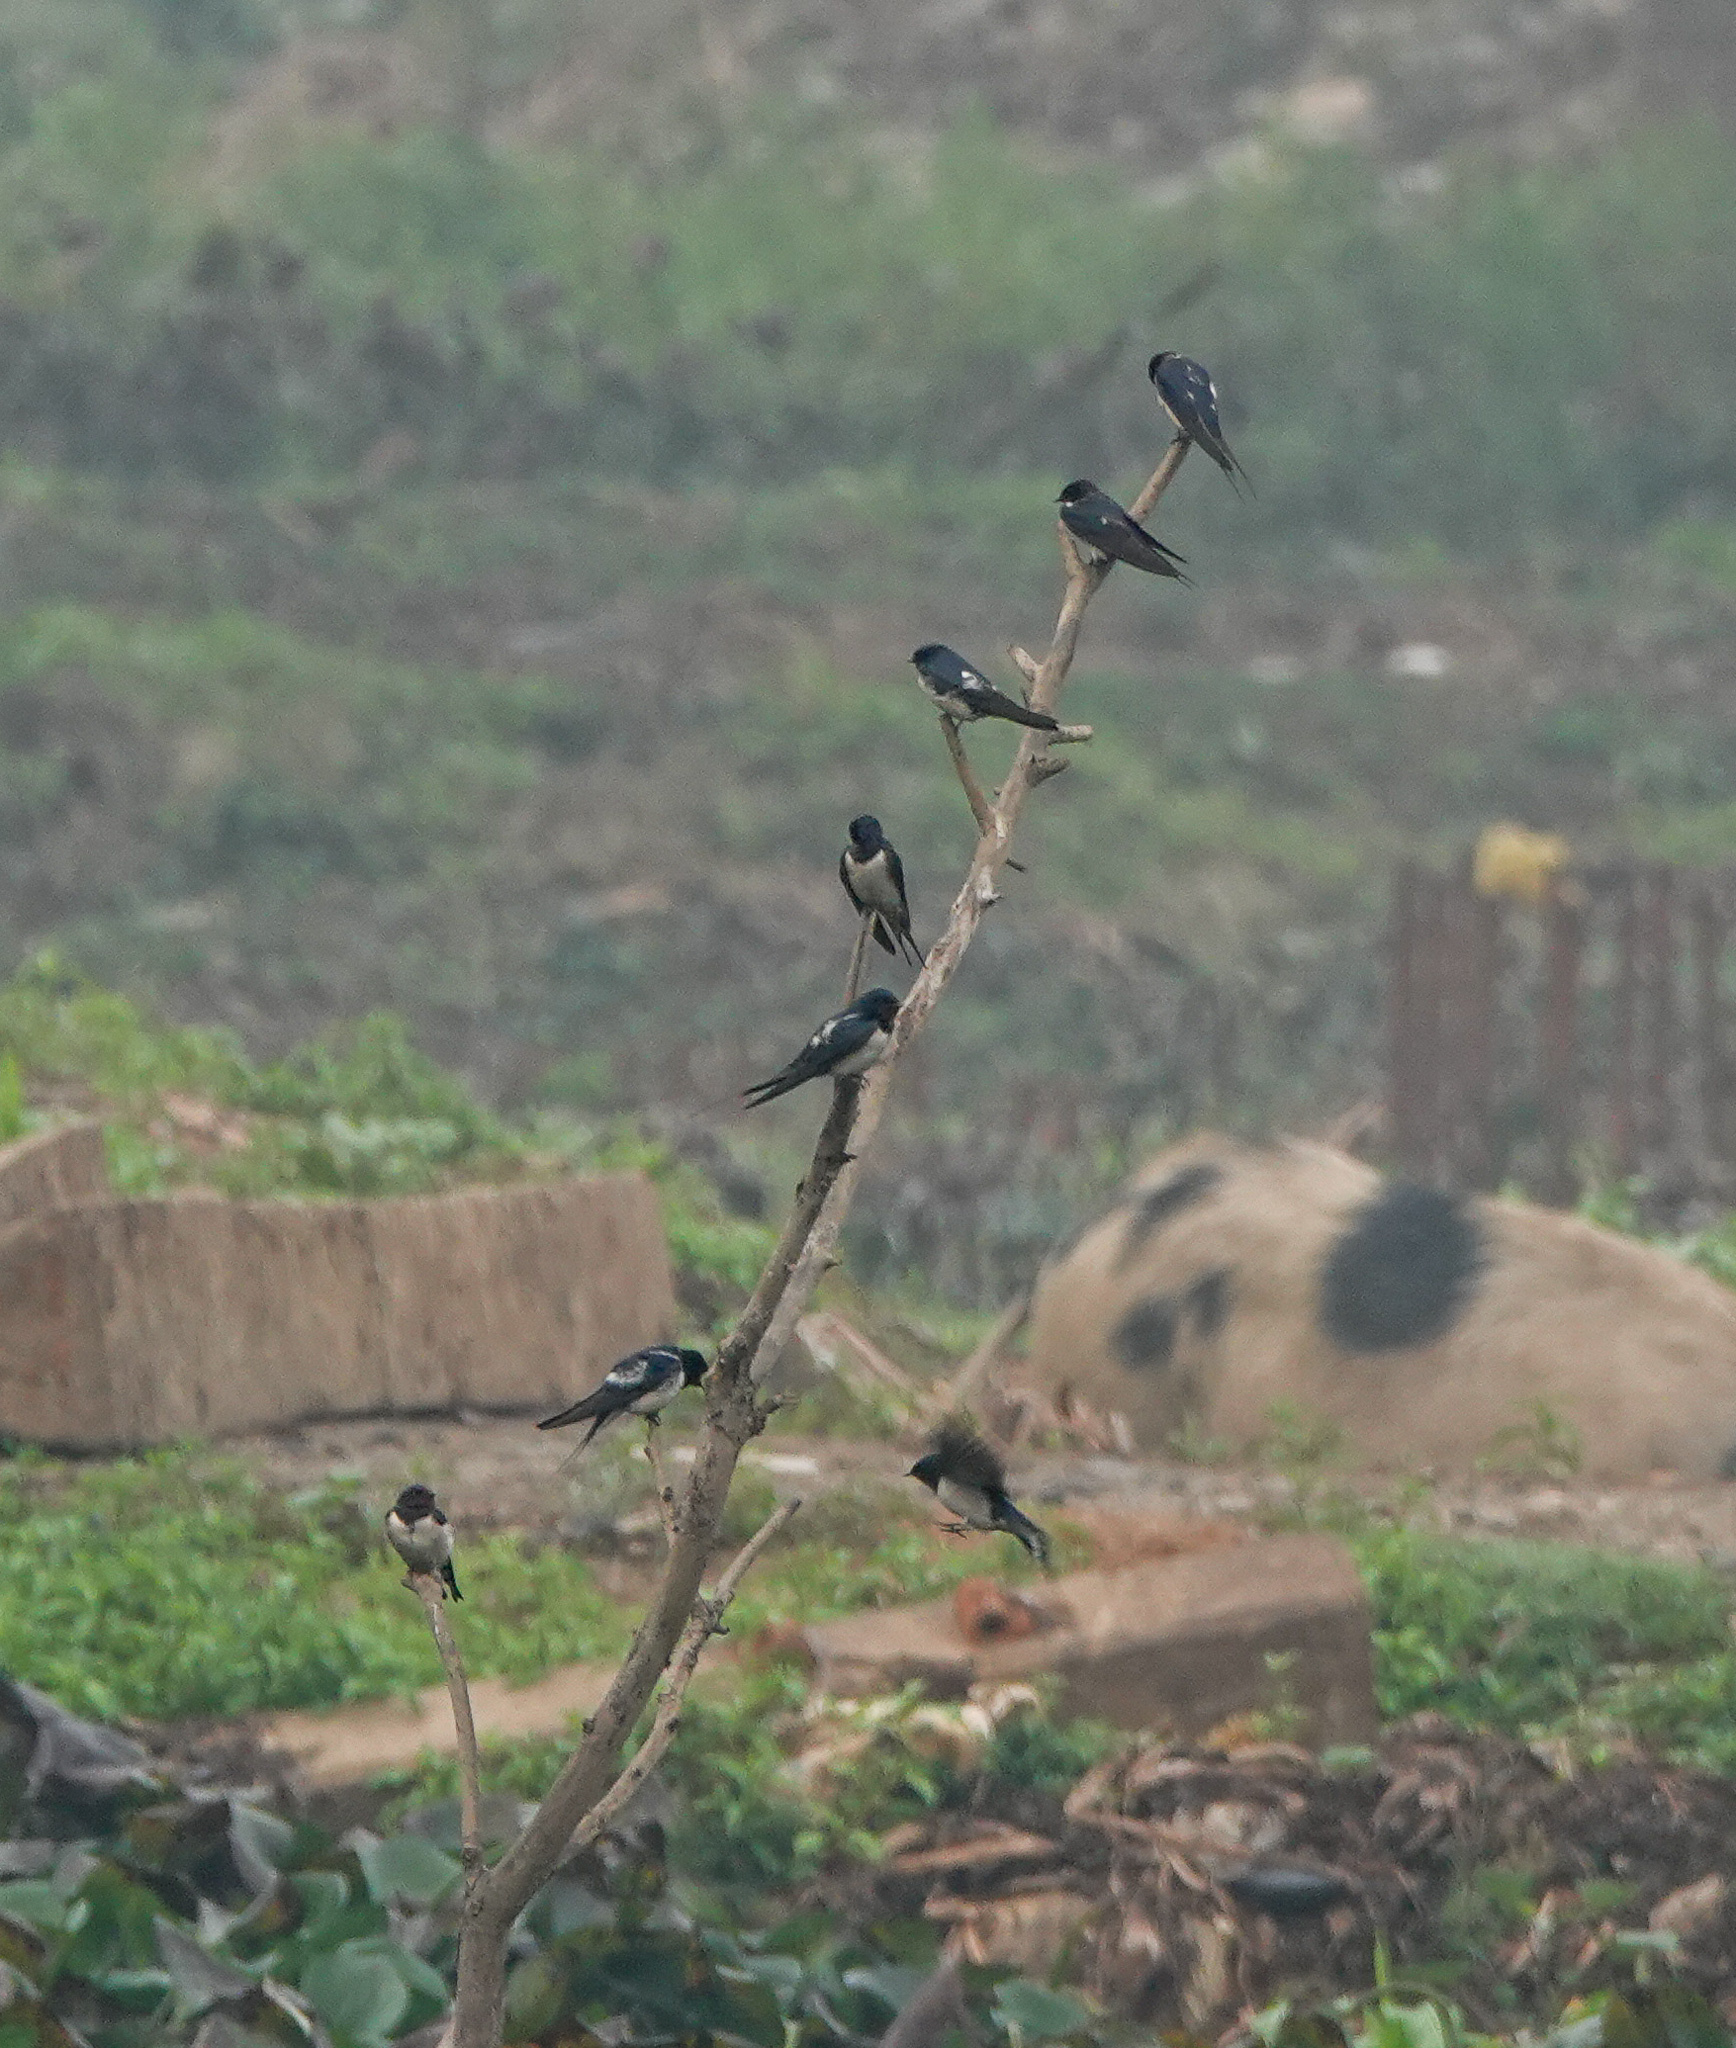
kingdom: Animalia
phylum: Chordata
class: Aves
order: Passeriformes
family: Hirundinidae
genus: Hirundo
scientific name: Hirundo rustica
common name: Barn swallow
